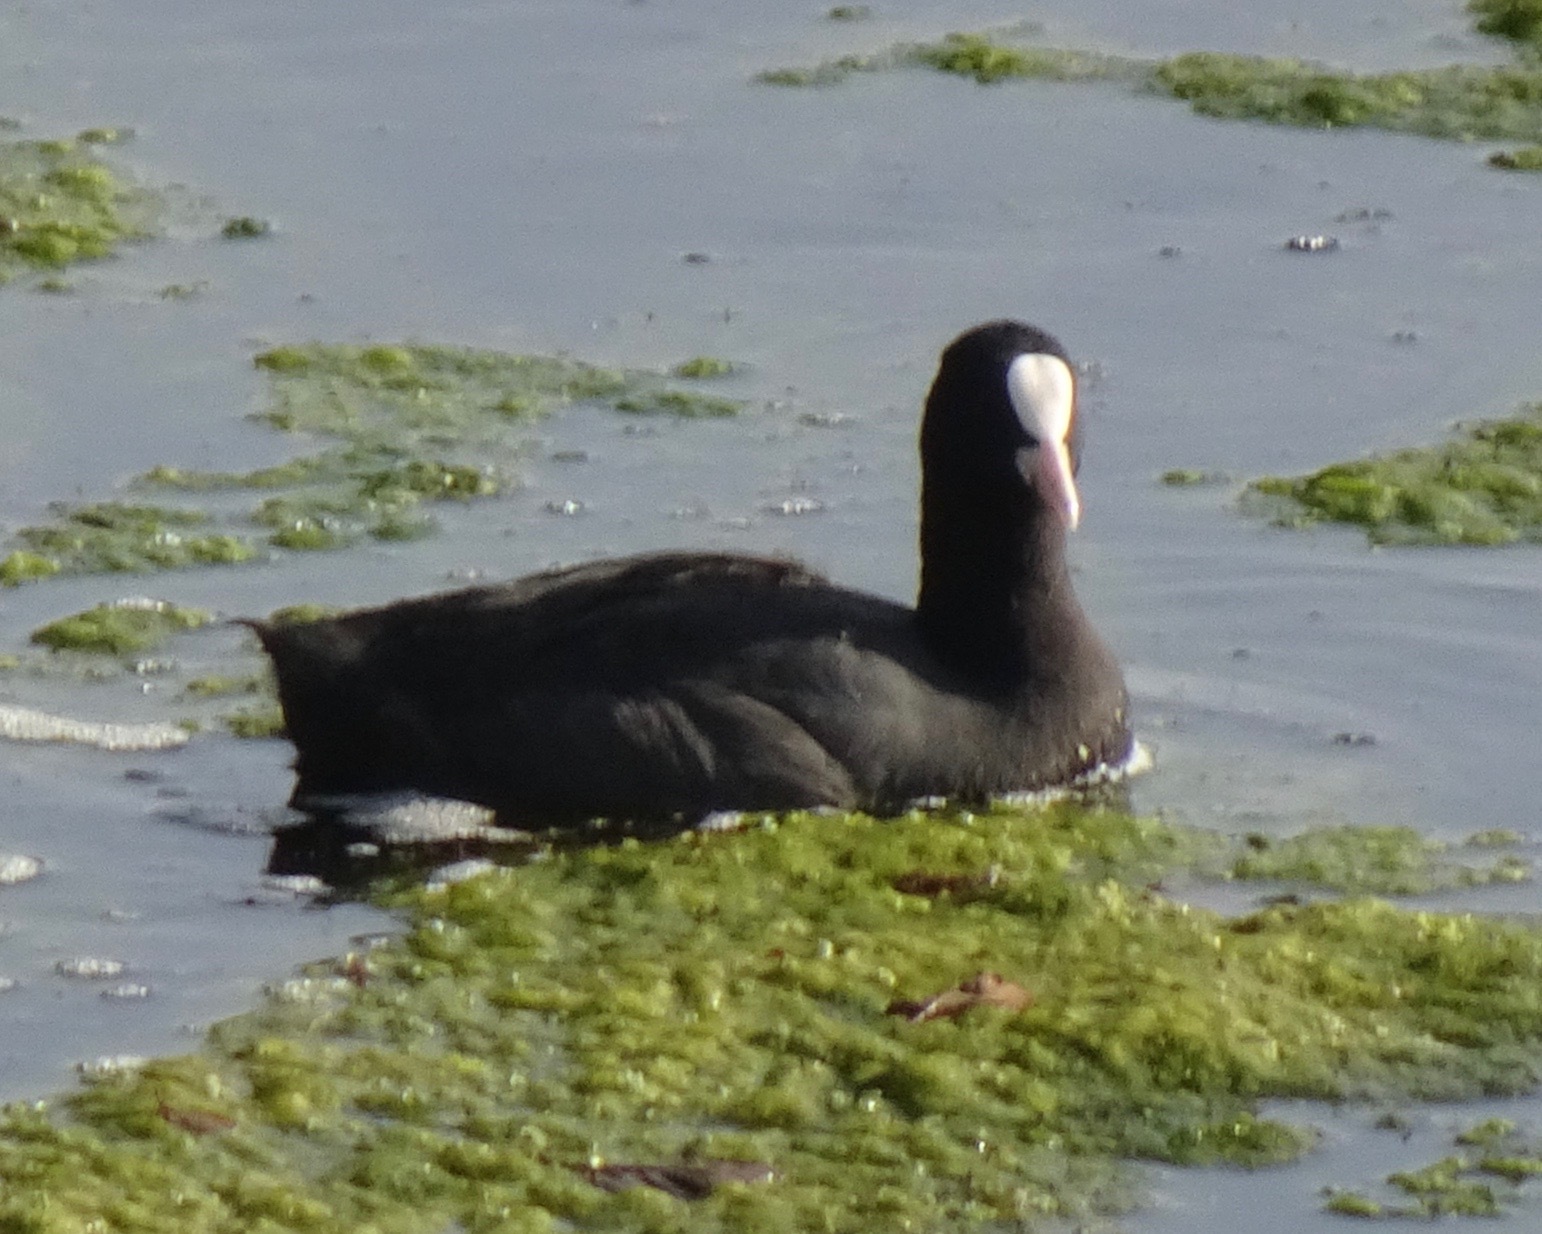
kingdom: Animalia
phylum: Chordata
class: Aves
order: Gruiformes
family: Rallidae
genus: Fulica
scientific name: Fulica atra
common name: Eurasian coot
